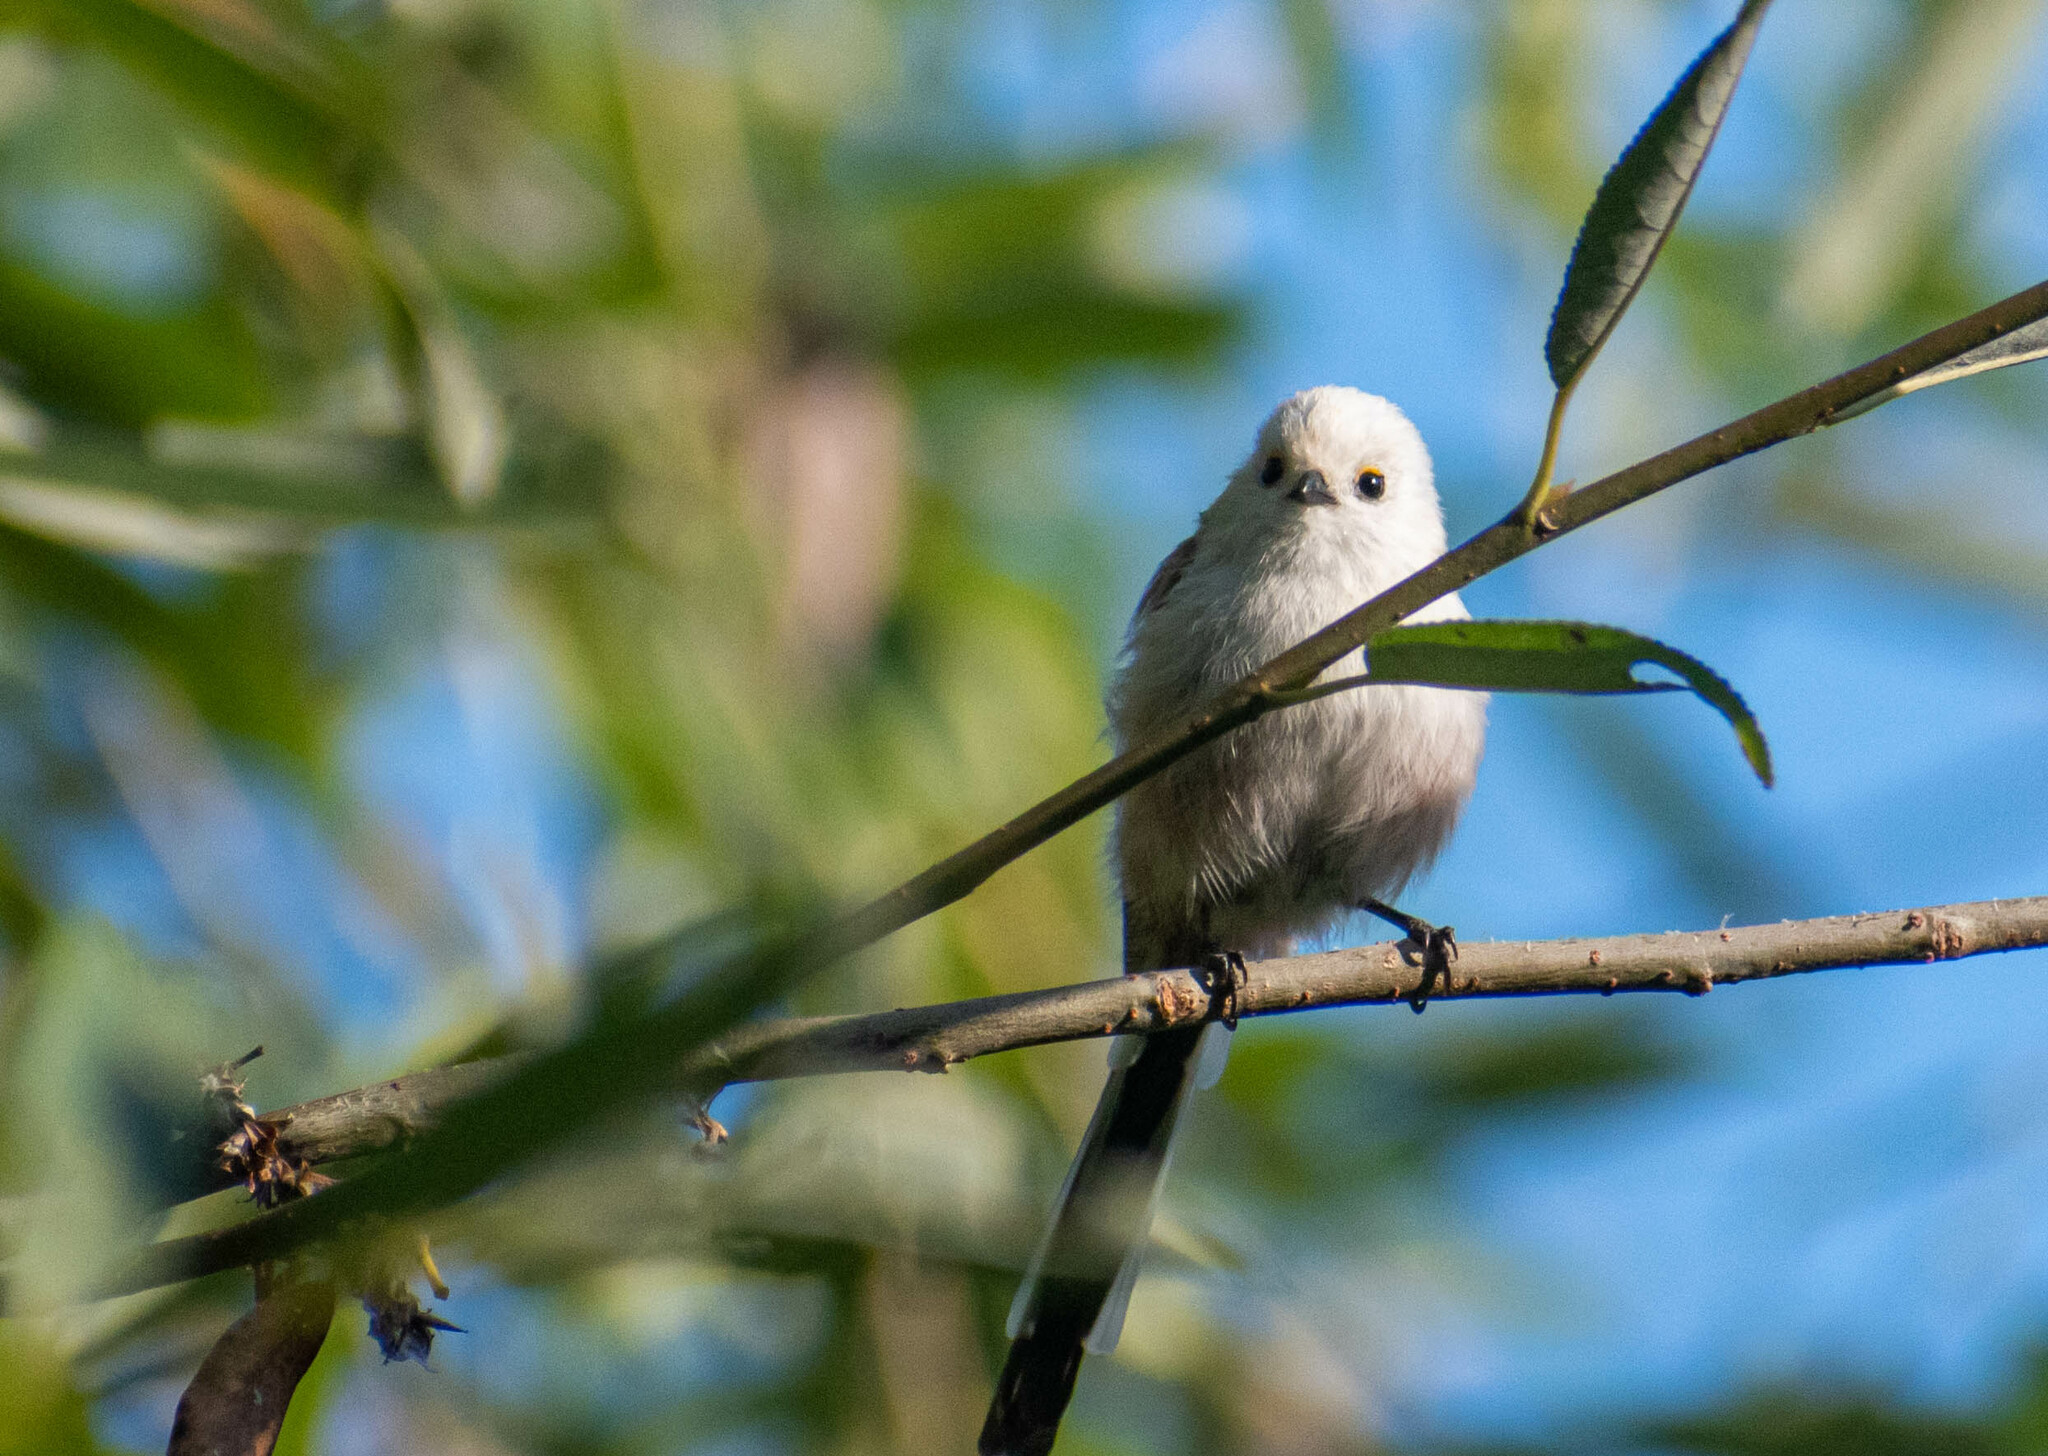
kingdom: Animalia
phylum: Chordata
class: Aves
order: Passeriformes
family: Aegithalidae
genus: Aegithalos
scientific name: Aegithalos caudatus
